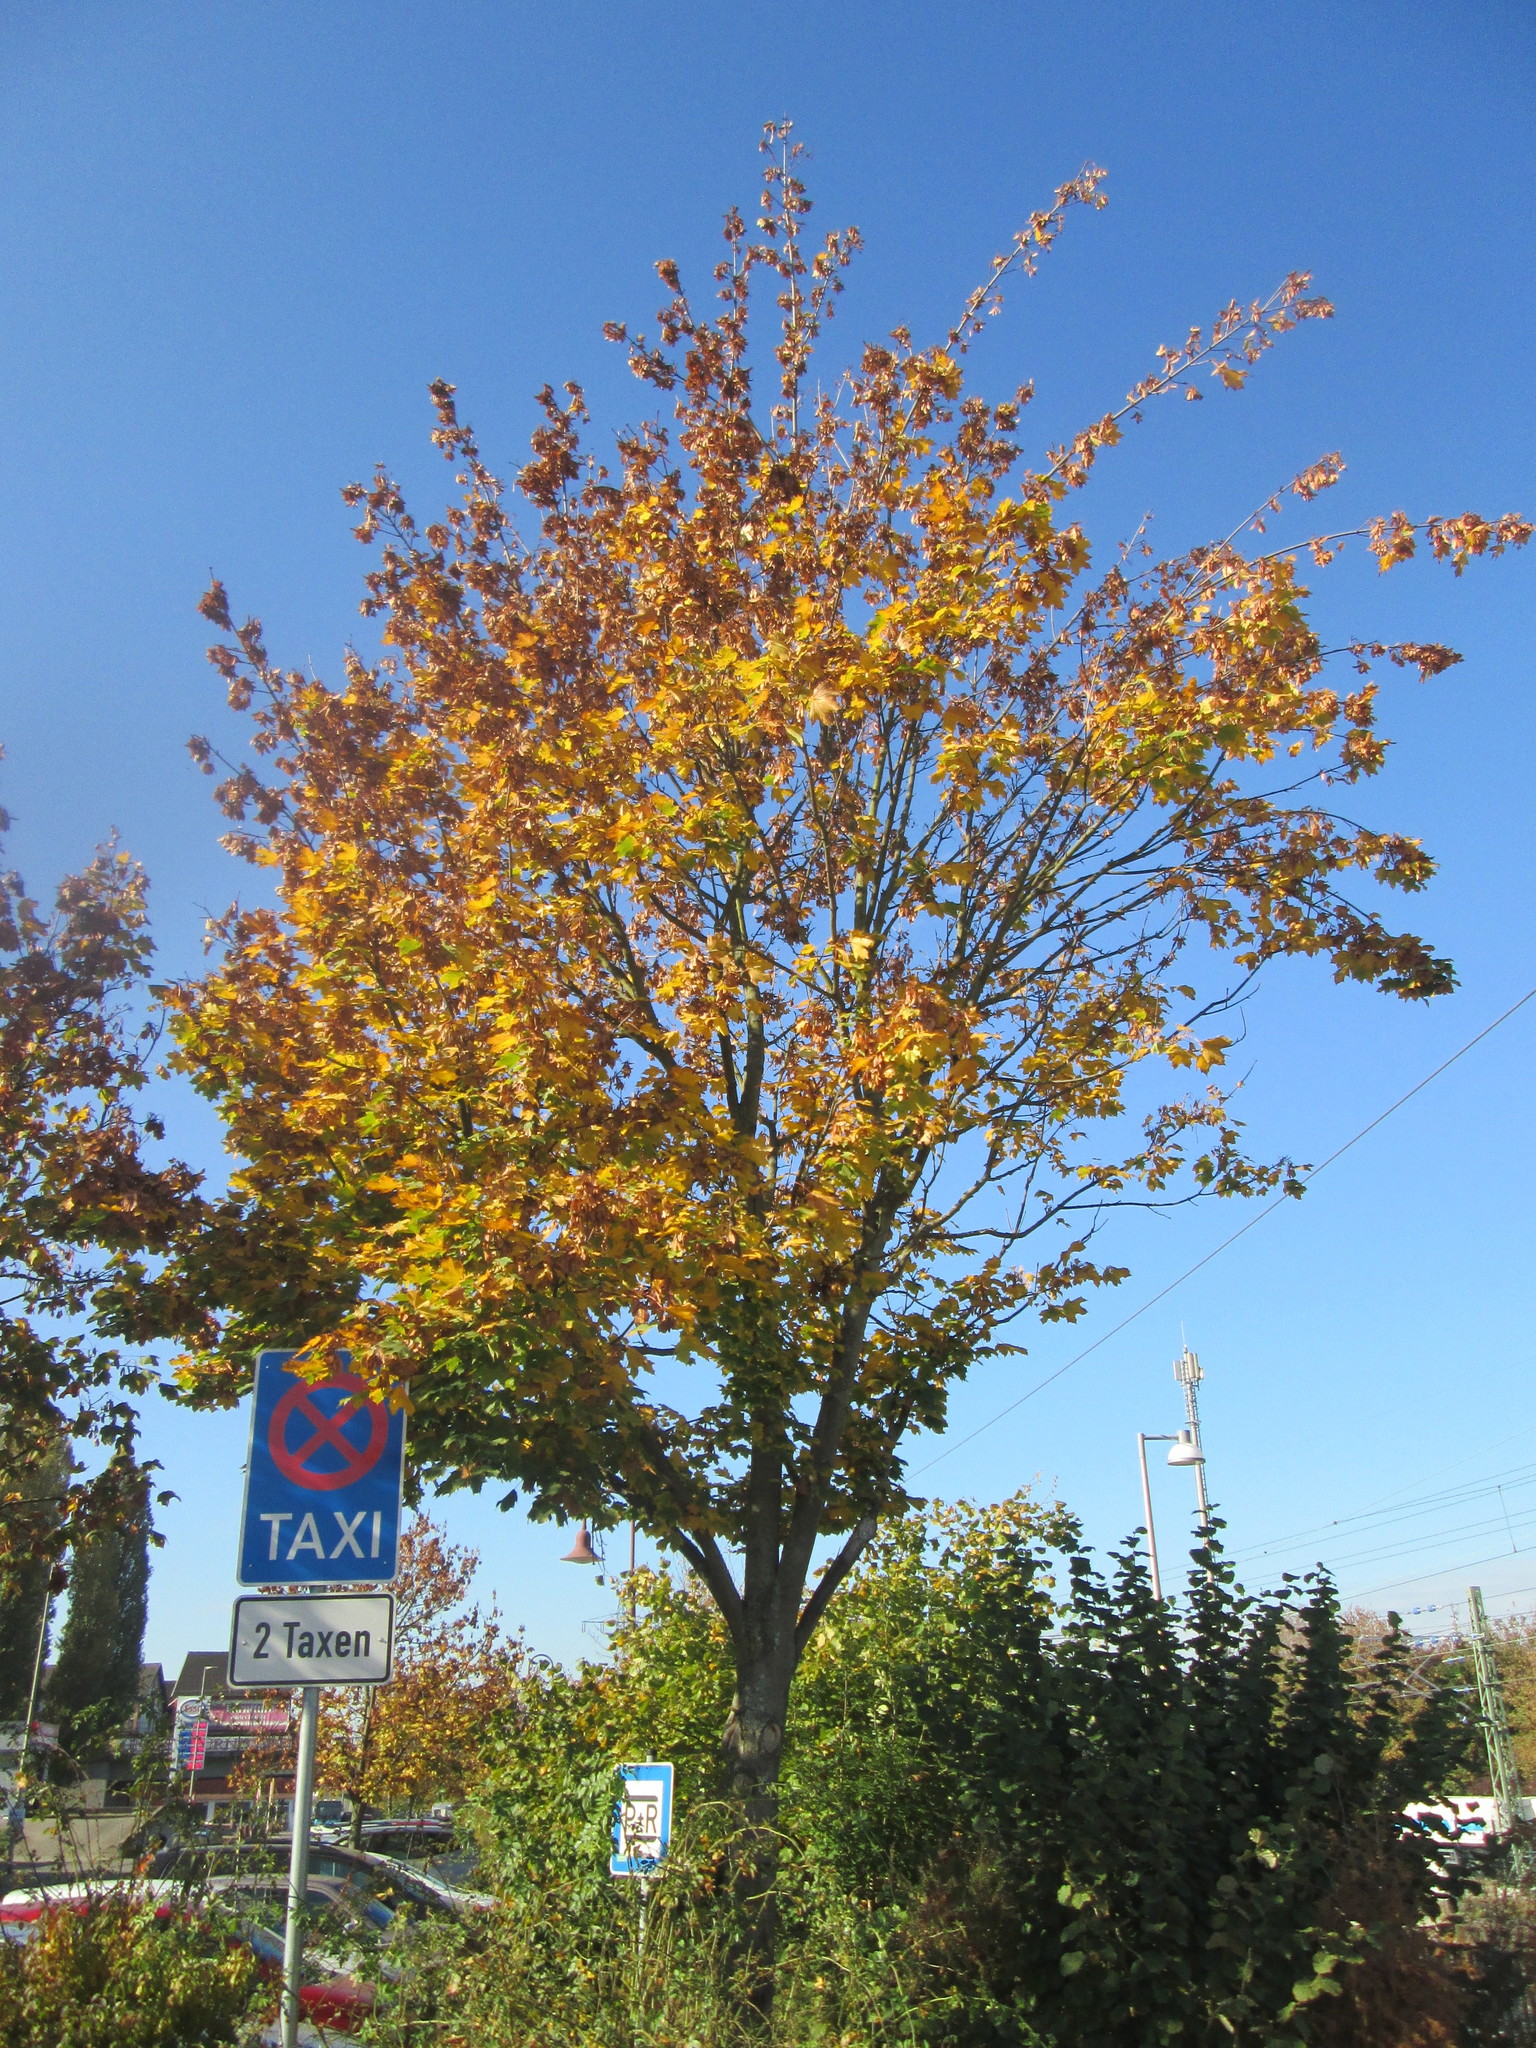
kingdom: Plantae
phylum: Tracheophyta
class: Magnoliopsida
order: Sapindales
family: Sapindaceae
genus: Acer
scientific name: Acer platanoides
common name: Norway maple
